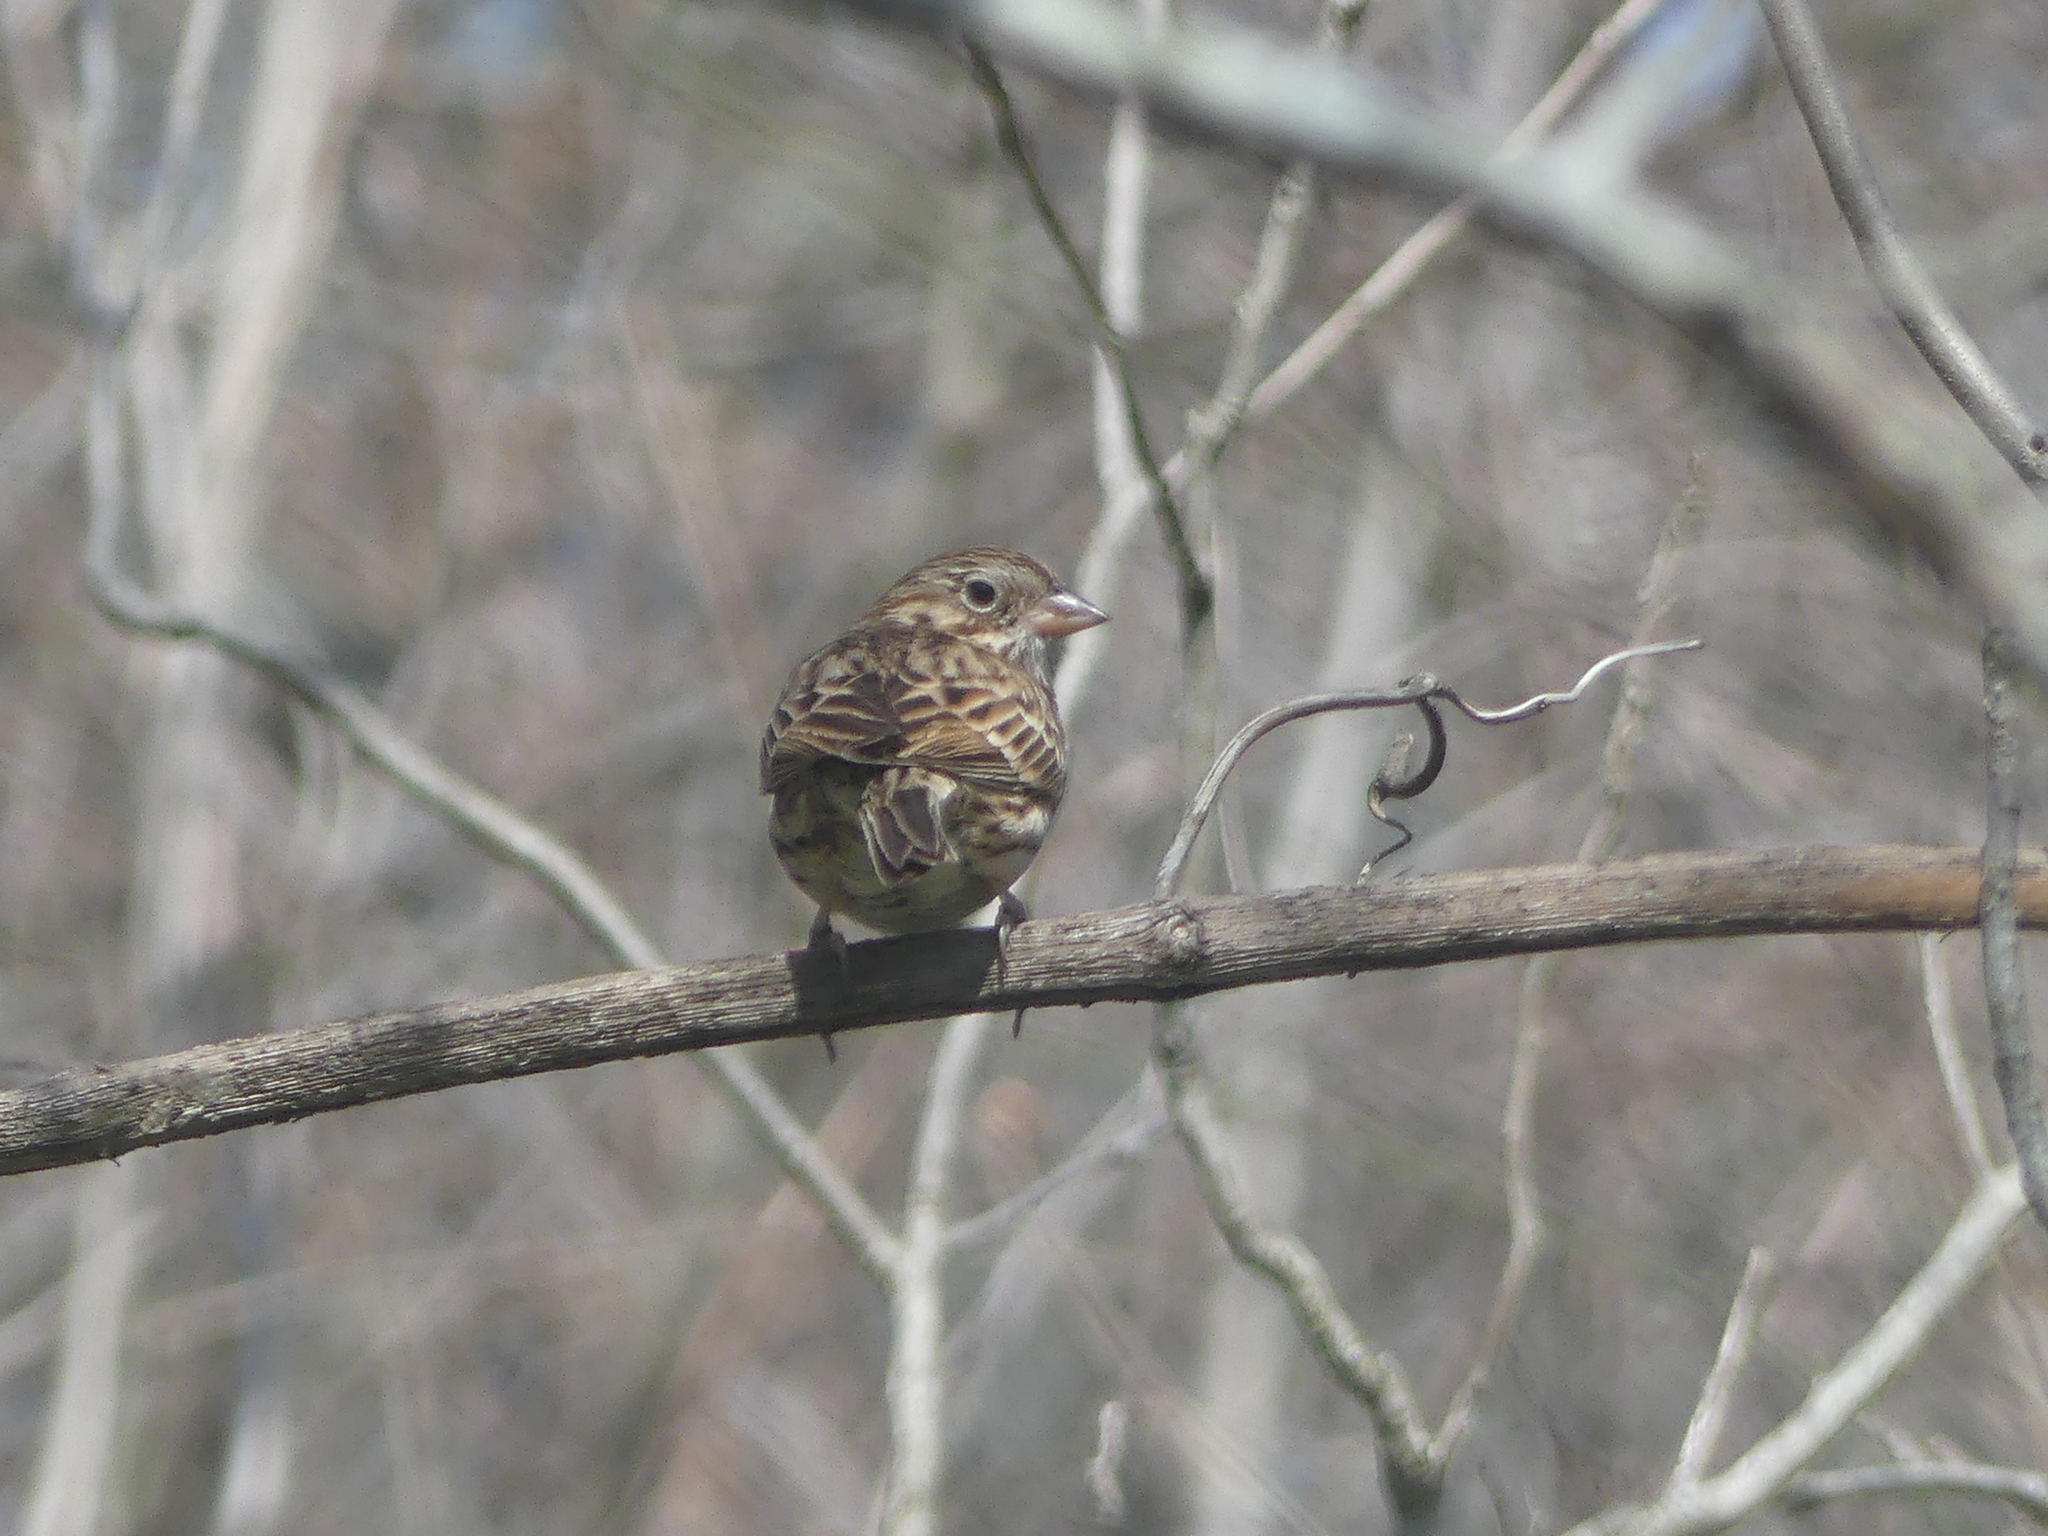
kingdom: Animalia
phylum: Chordata
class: Aves
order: Passeriformes
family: Passerellidae
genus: Pooecetes
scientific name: Pooecetes gramineus
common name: Vesper sparrow
